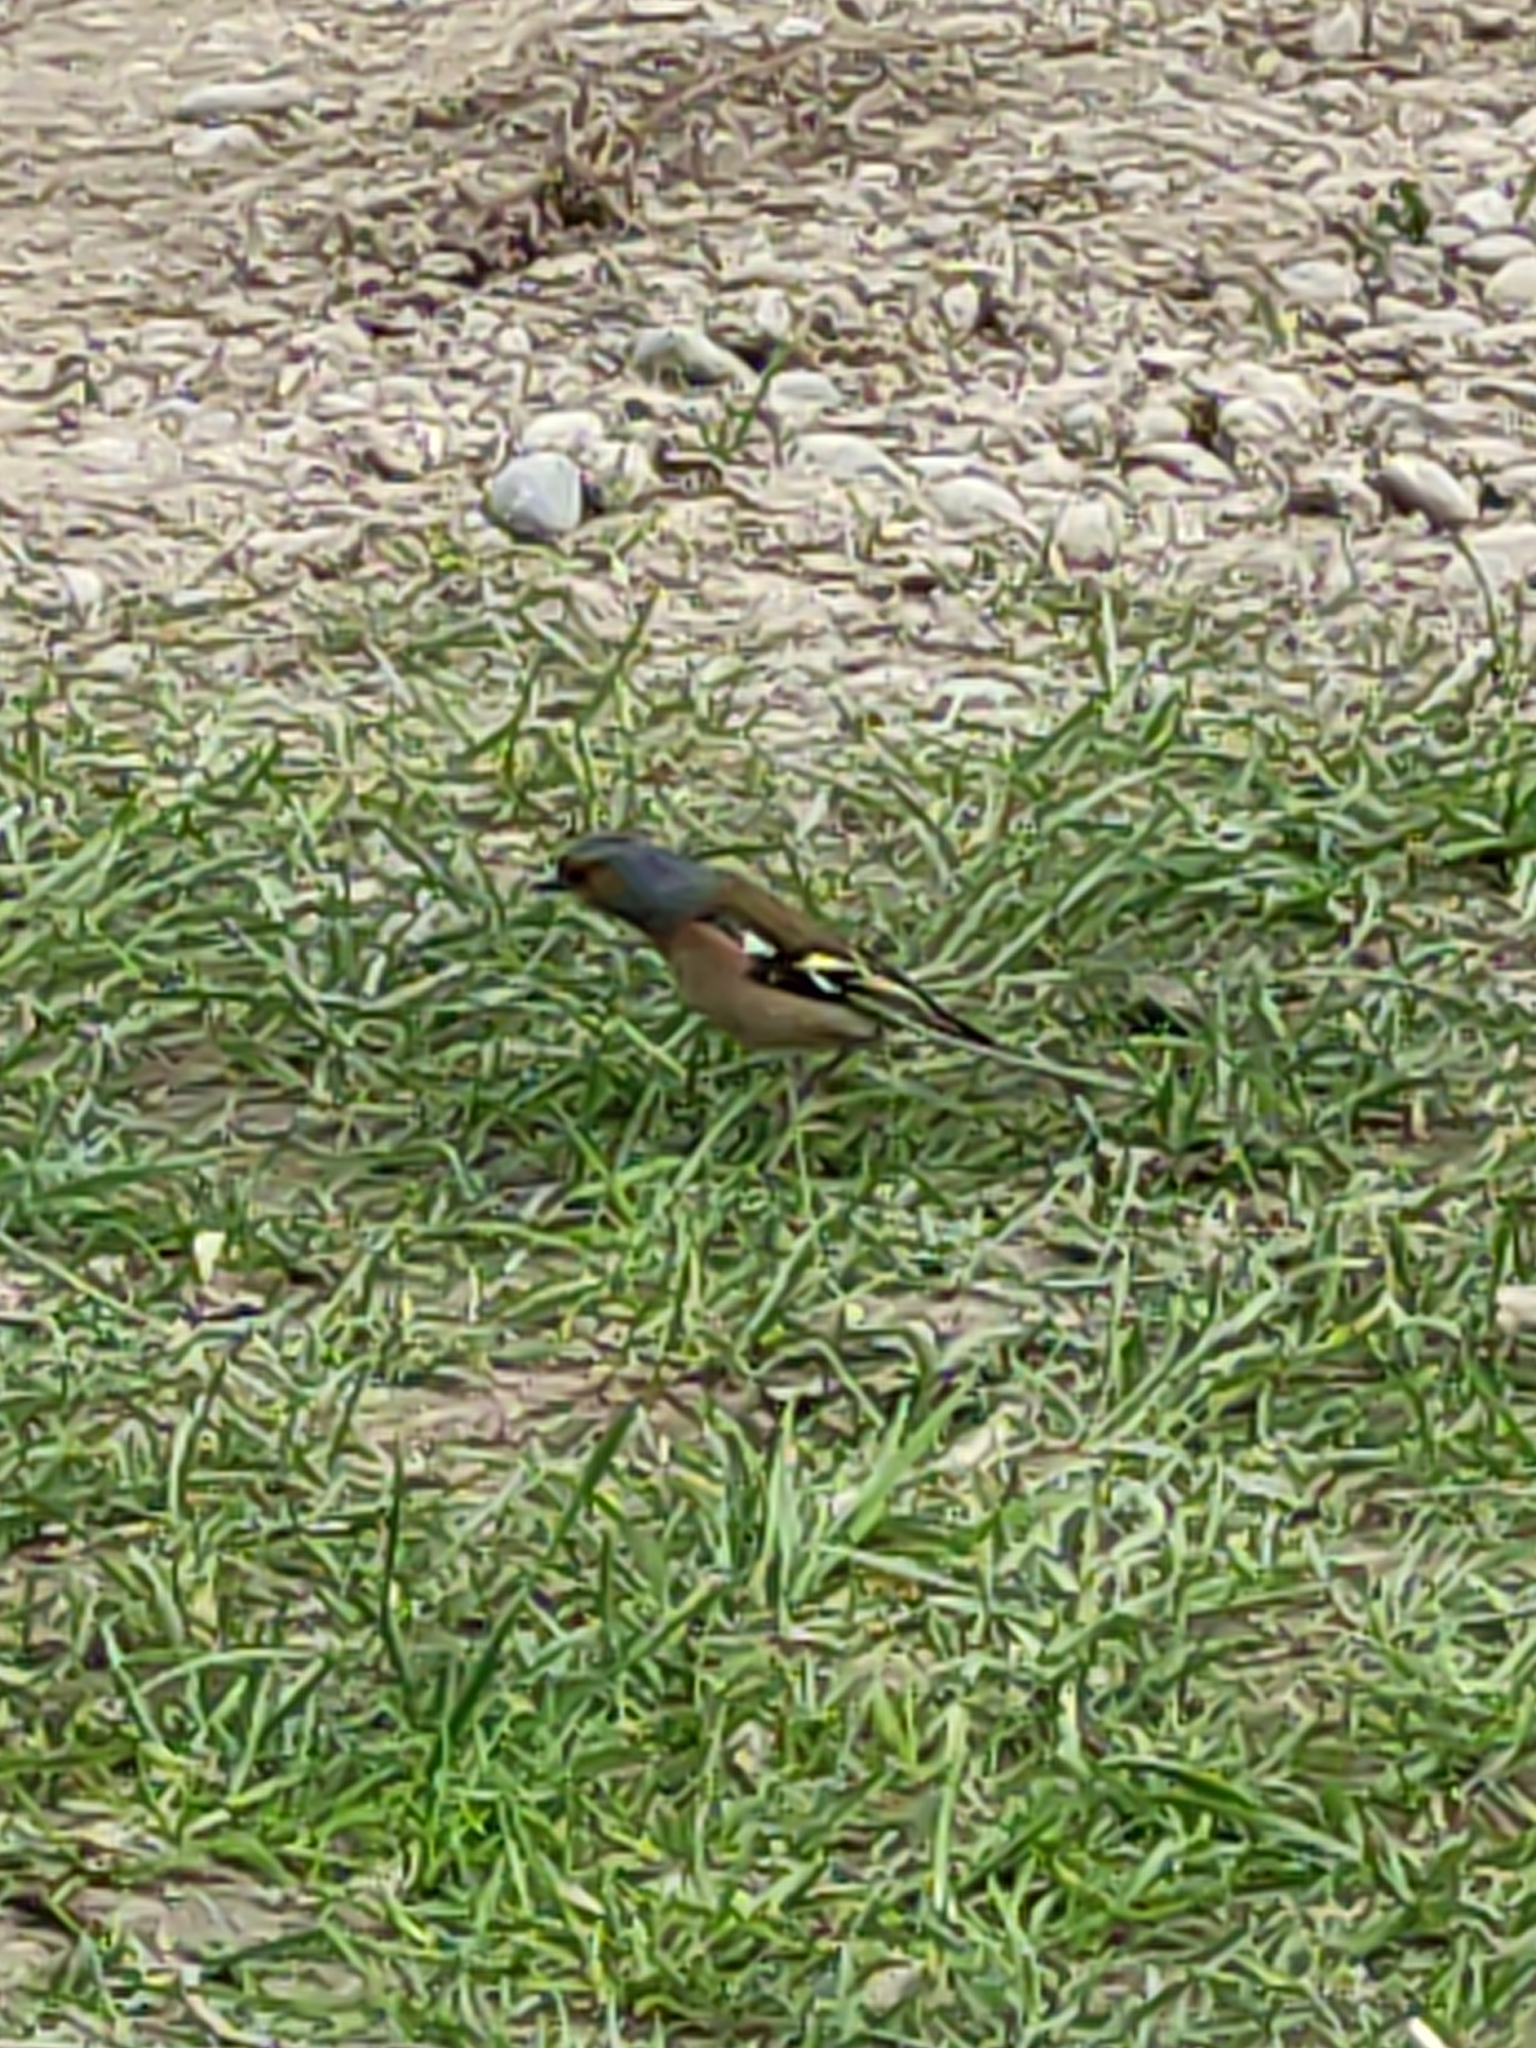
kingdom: Animalia
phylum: Chordata
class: Aves
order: Passeriformes
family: Fringillidae
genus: Fringilla
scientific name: Fringilla coelebs
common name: Common chaffinch
